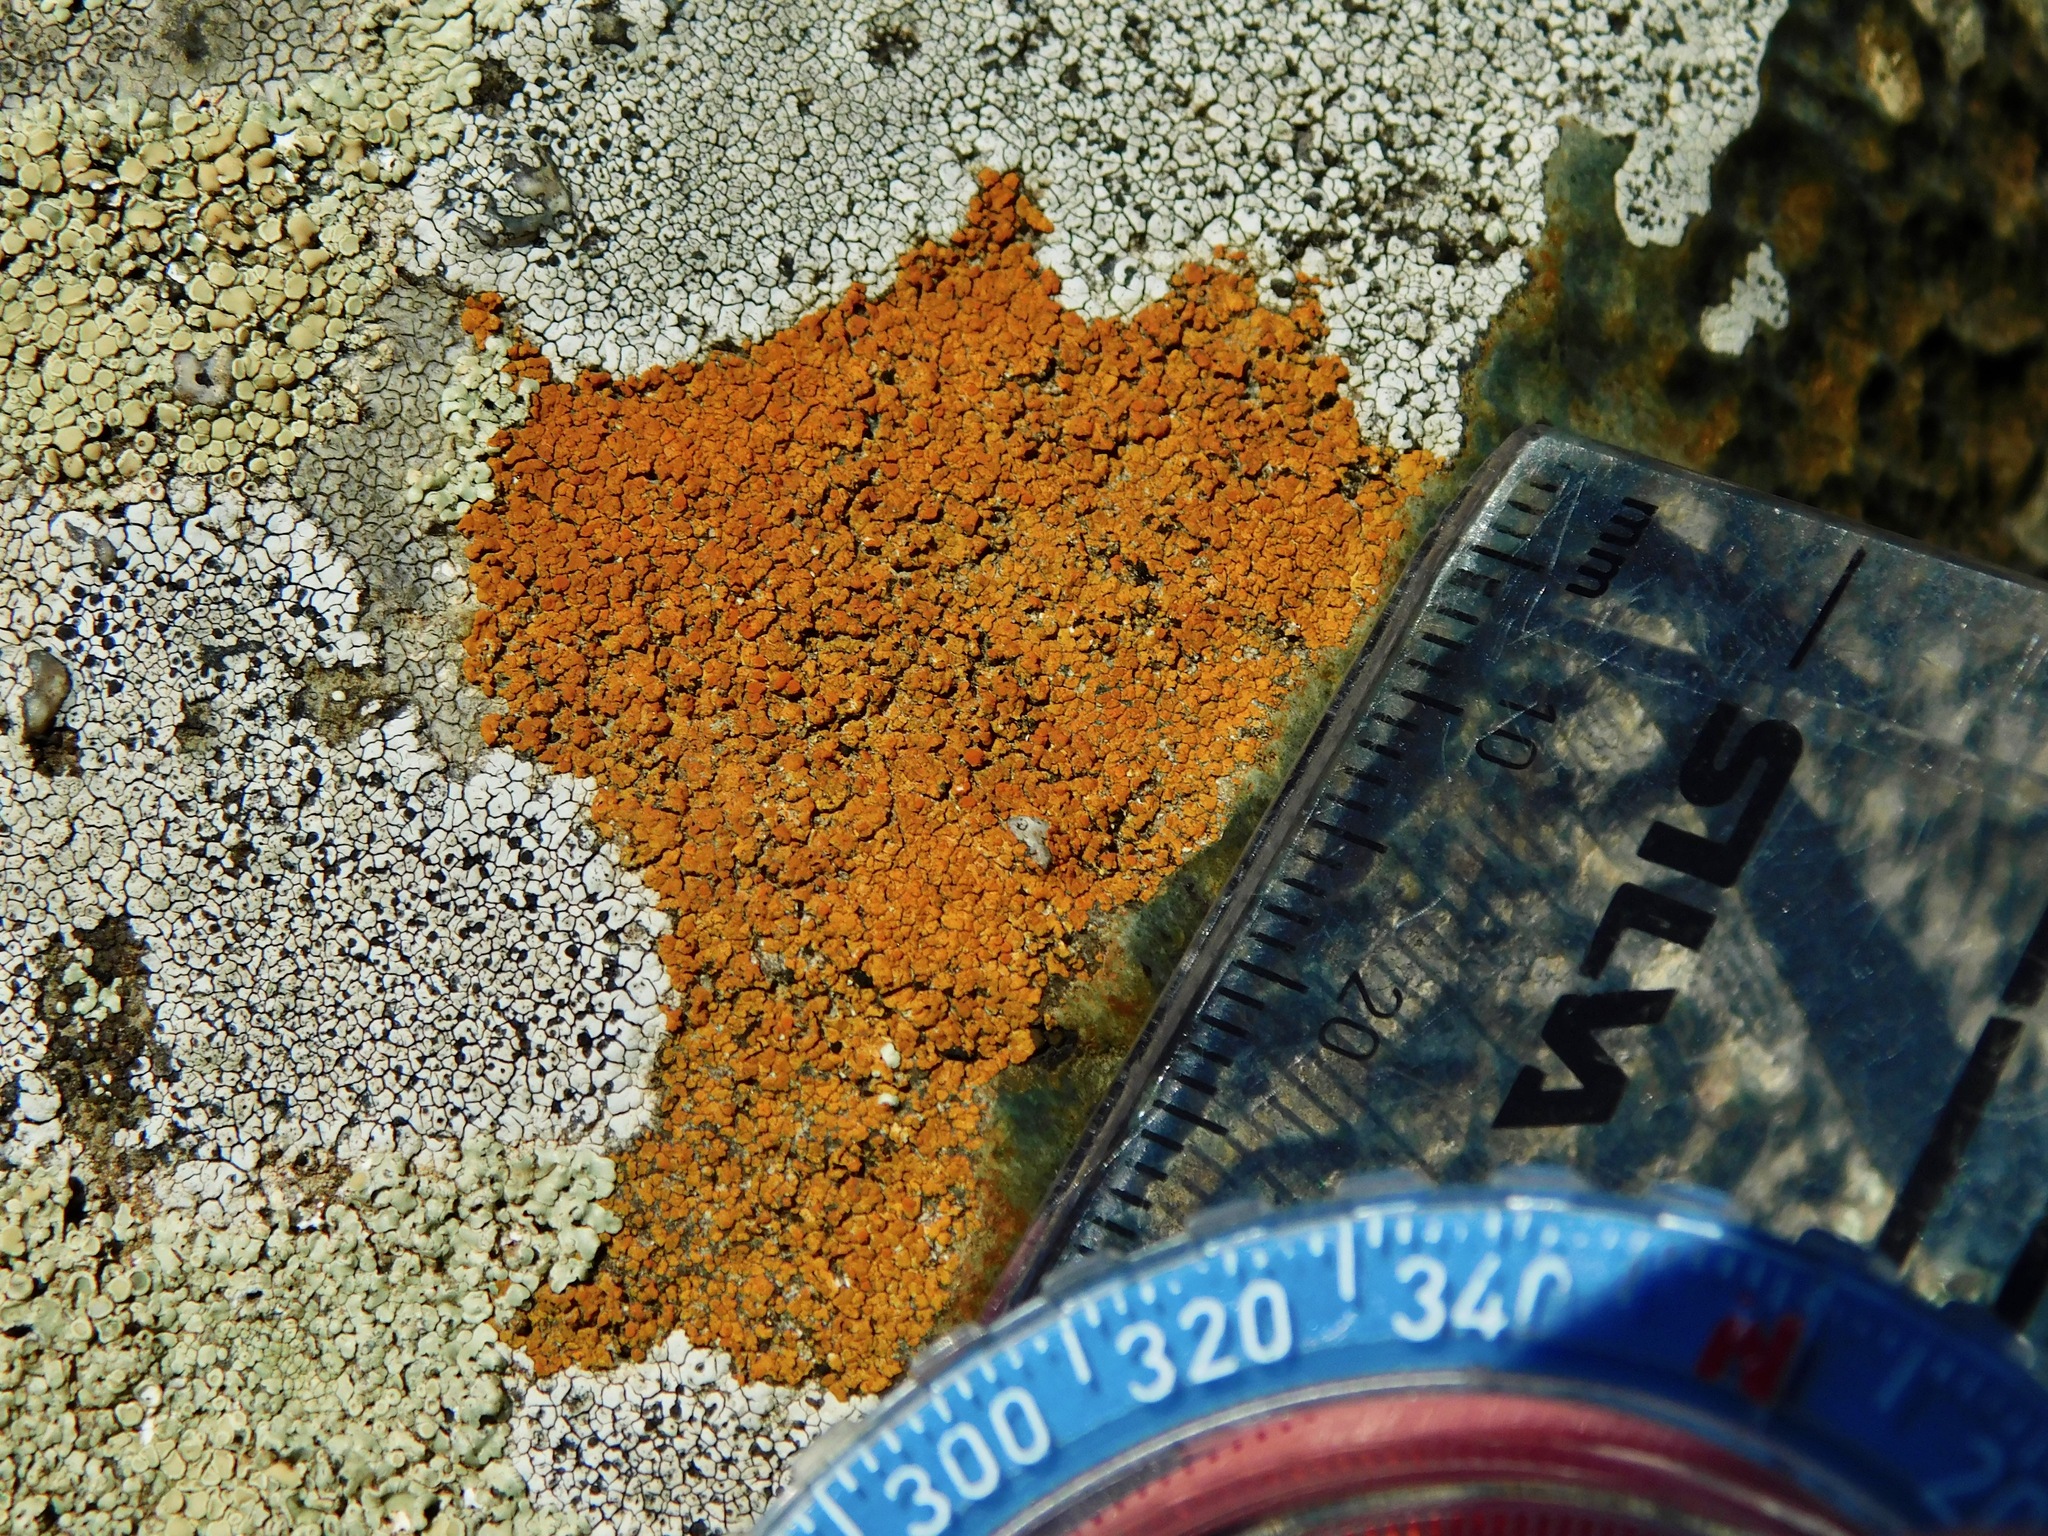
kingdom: Fungi
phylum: Ascomycota
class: Lecanoromycetes
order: Teloschistales
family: Teloschistaceae
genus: Squamulea
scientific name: Squamulea subsoluta
